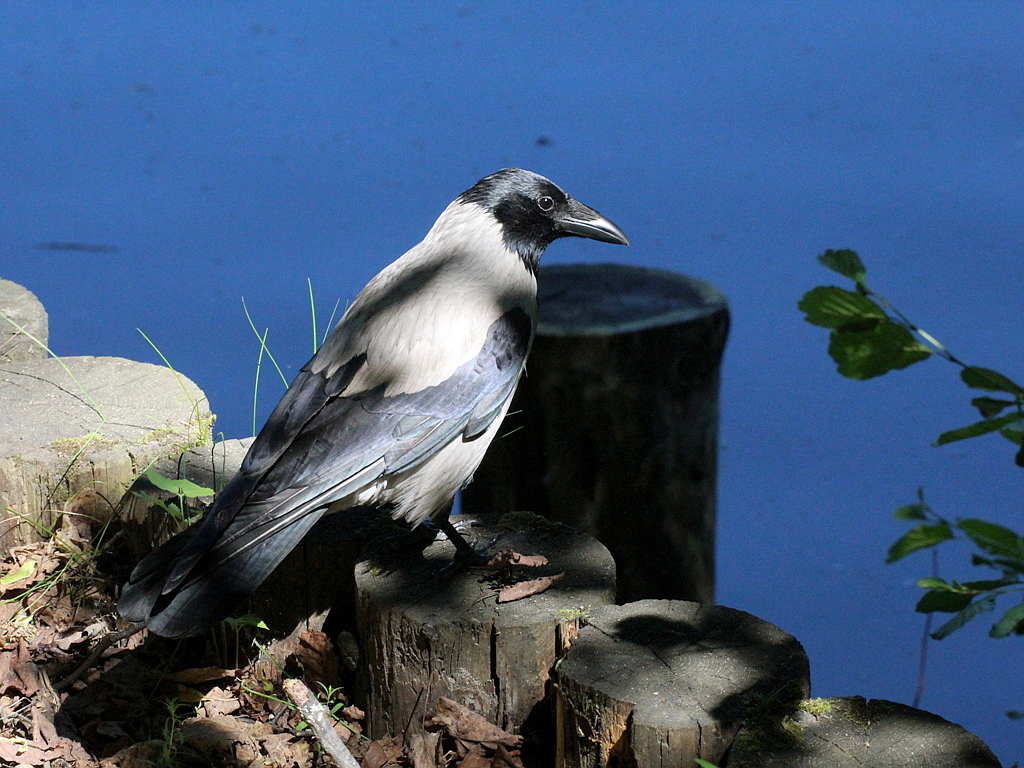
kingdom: Animalia
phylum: Chordata
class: Aves
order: Passeriformes
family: Corvidae
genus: Corvus
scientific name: Corvus cornix
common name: Hooded crow
